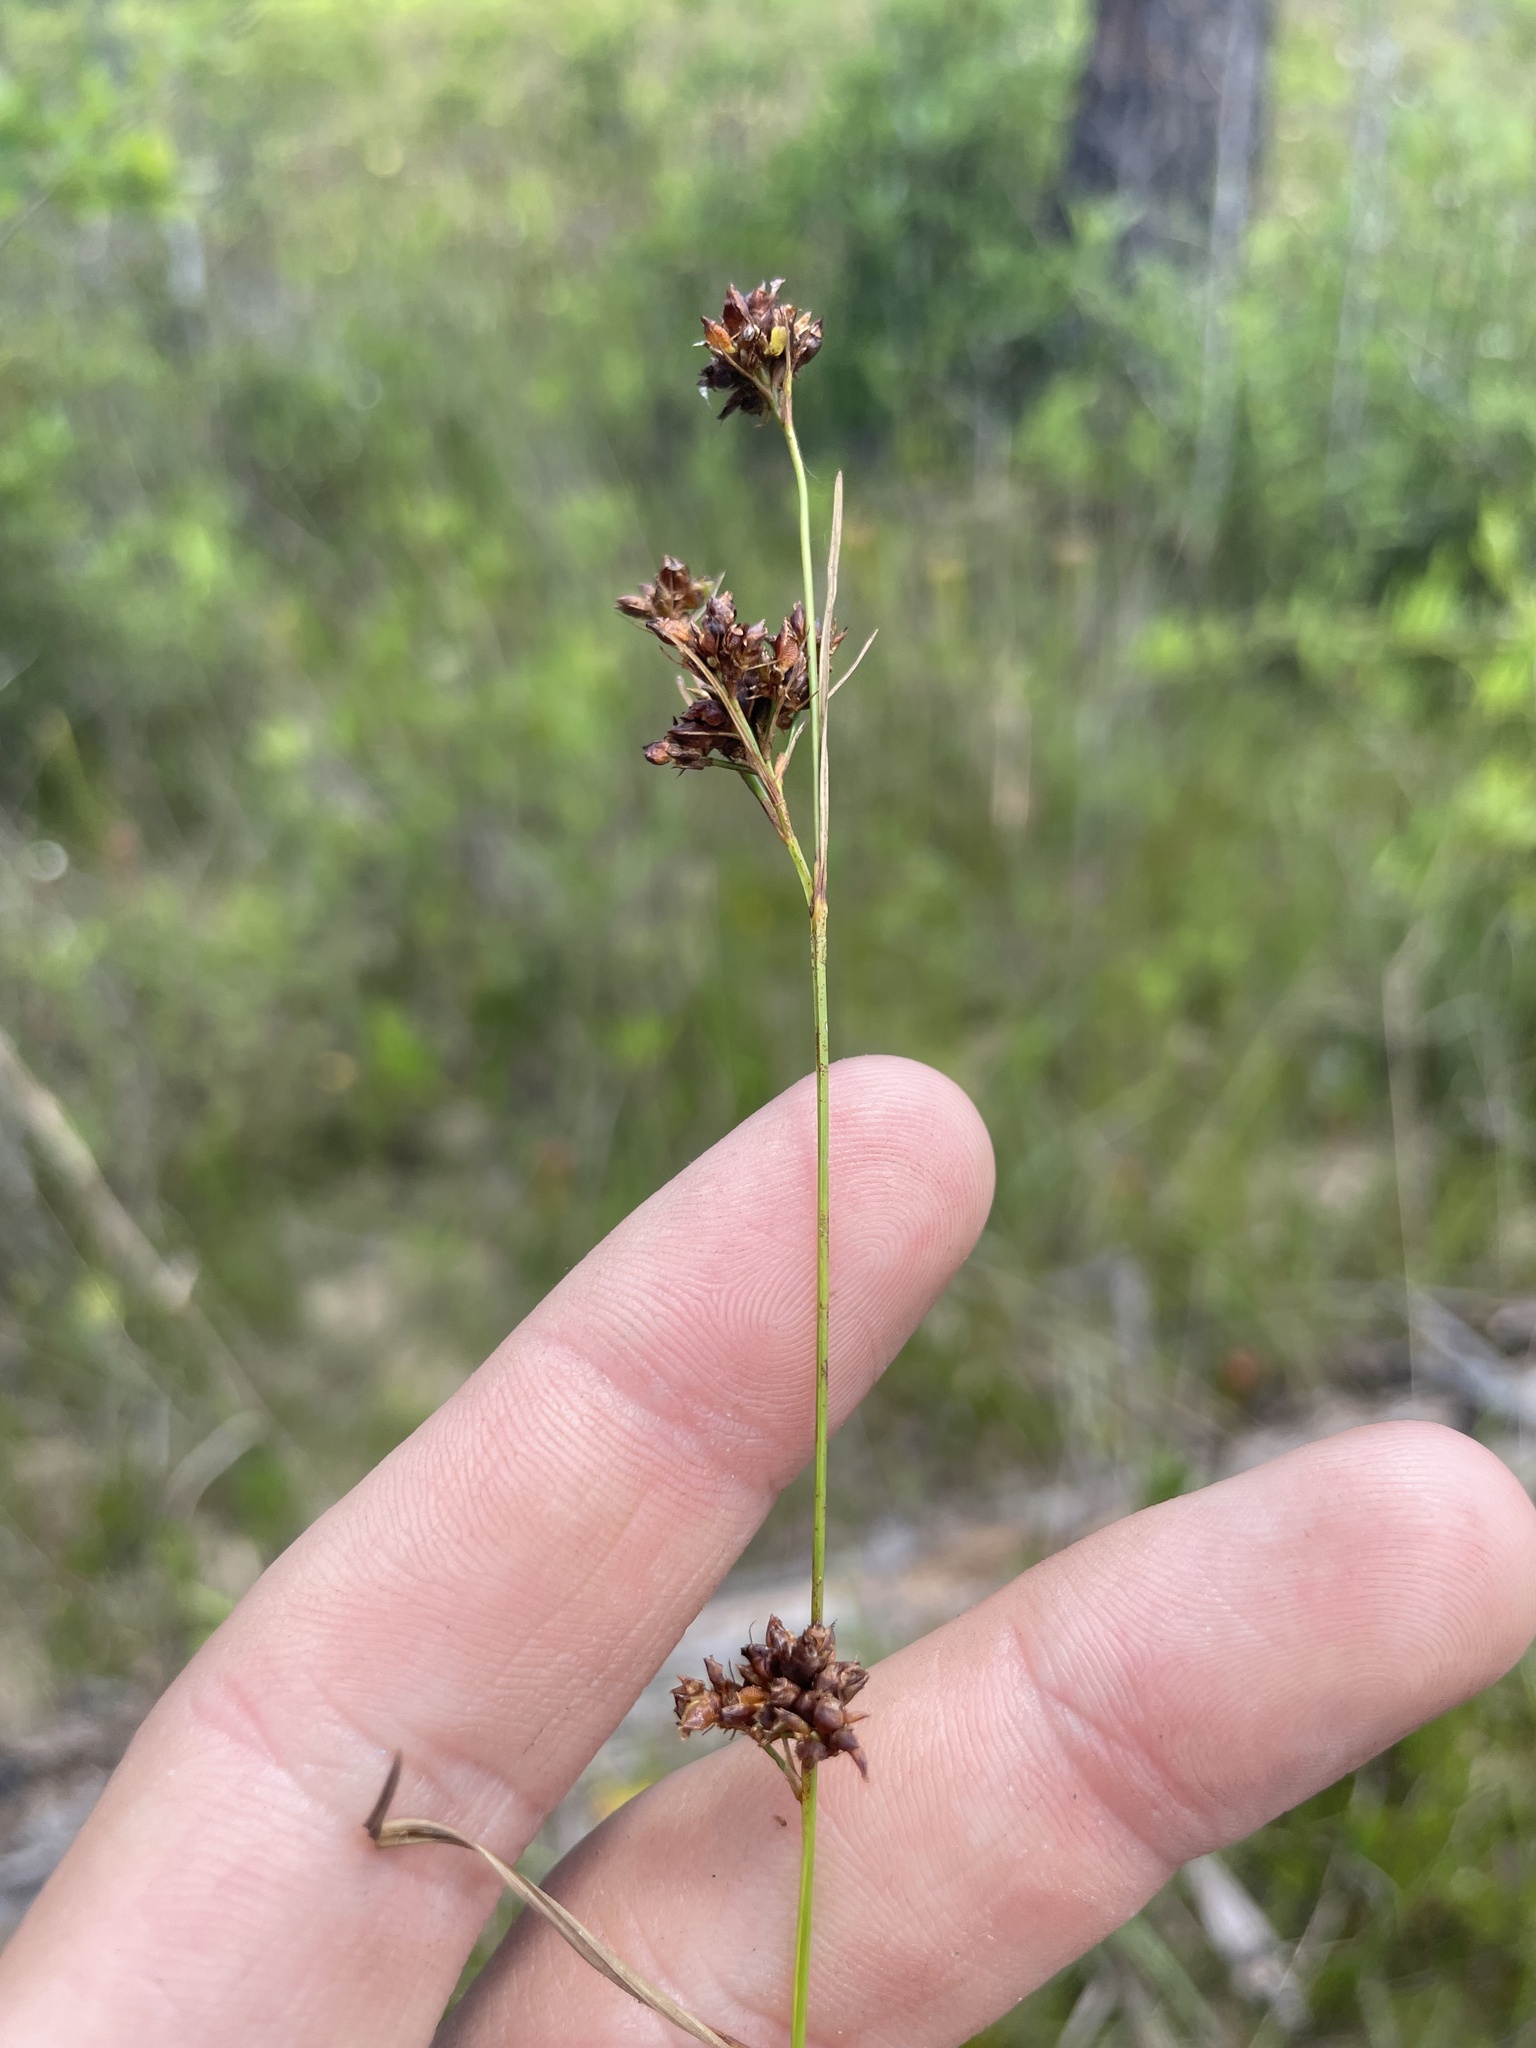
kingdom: Plantae
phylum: Tracheophyta
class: Liliopsida
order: Poales
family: Cyperaceae
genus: Rhynchospora
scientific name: Rhynchospora compressa
